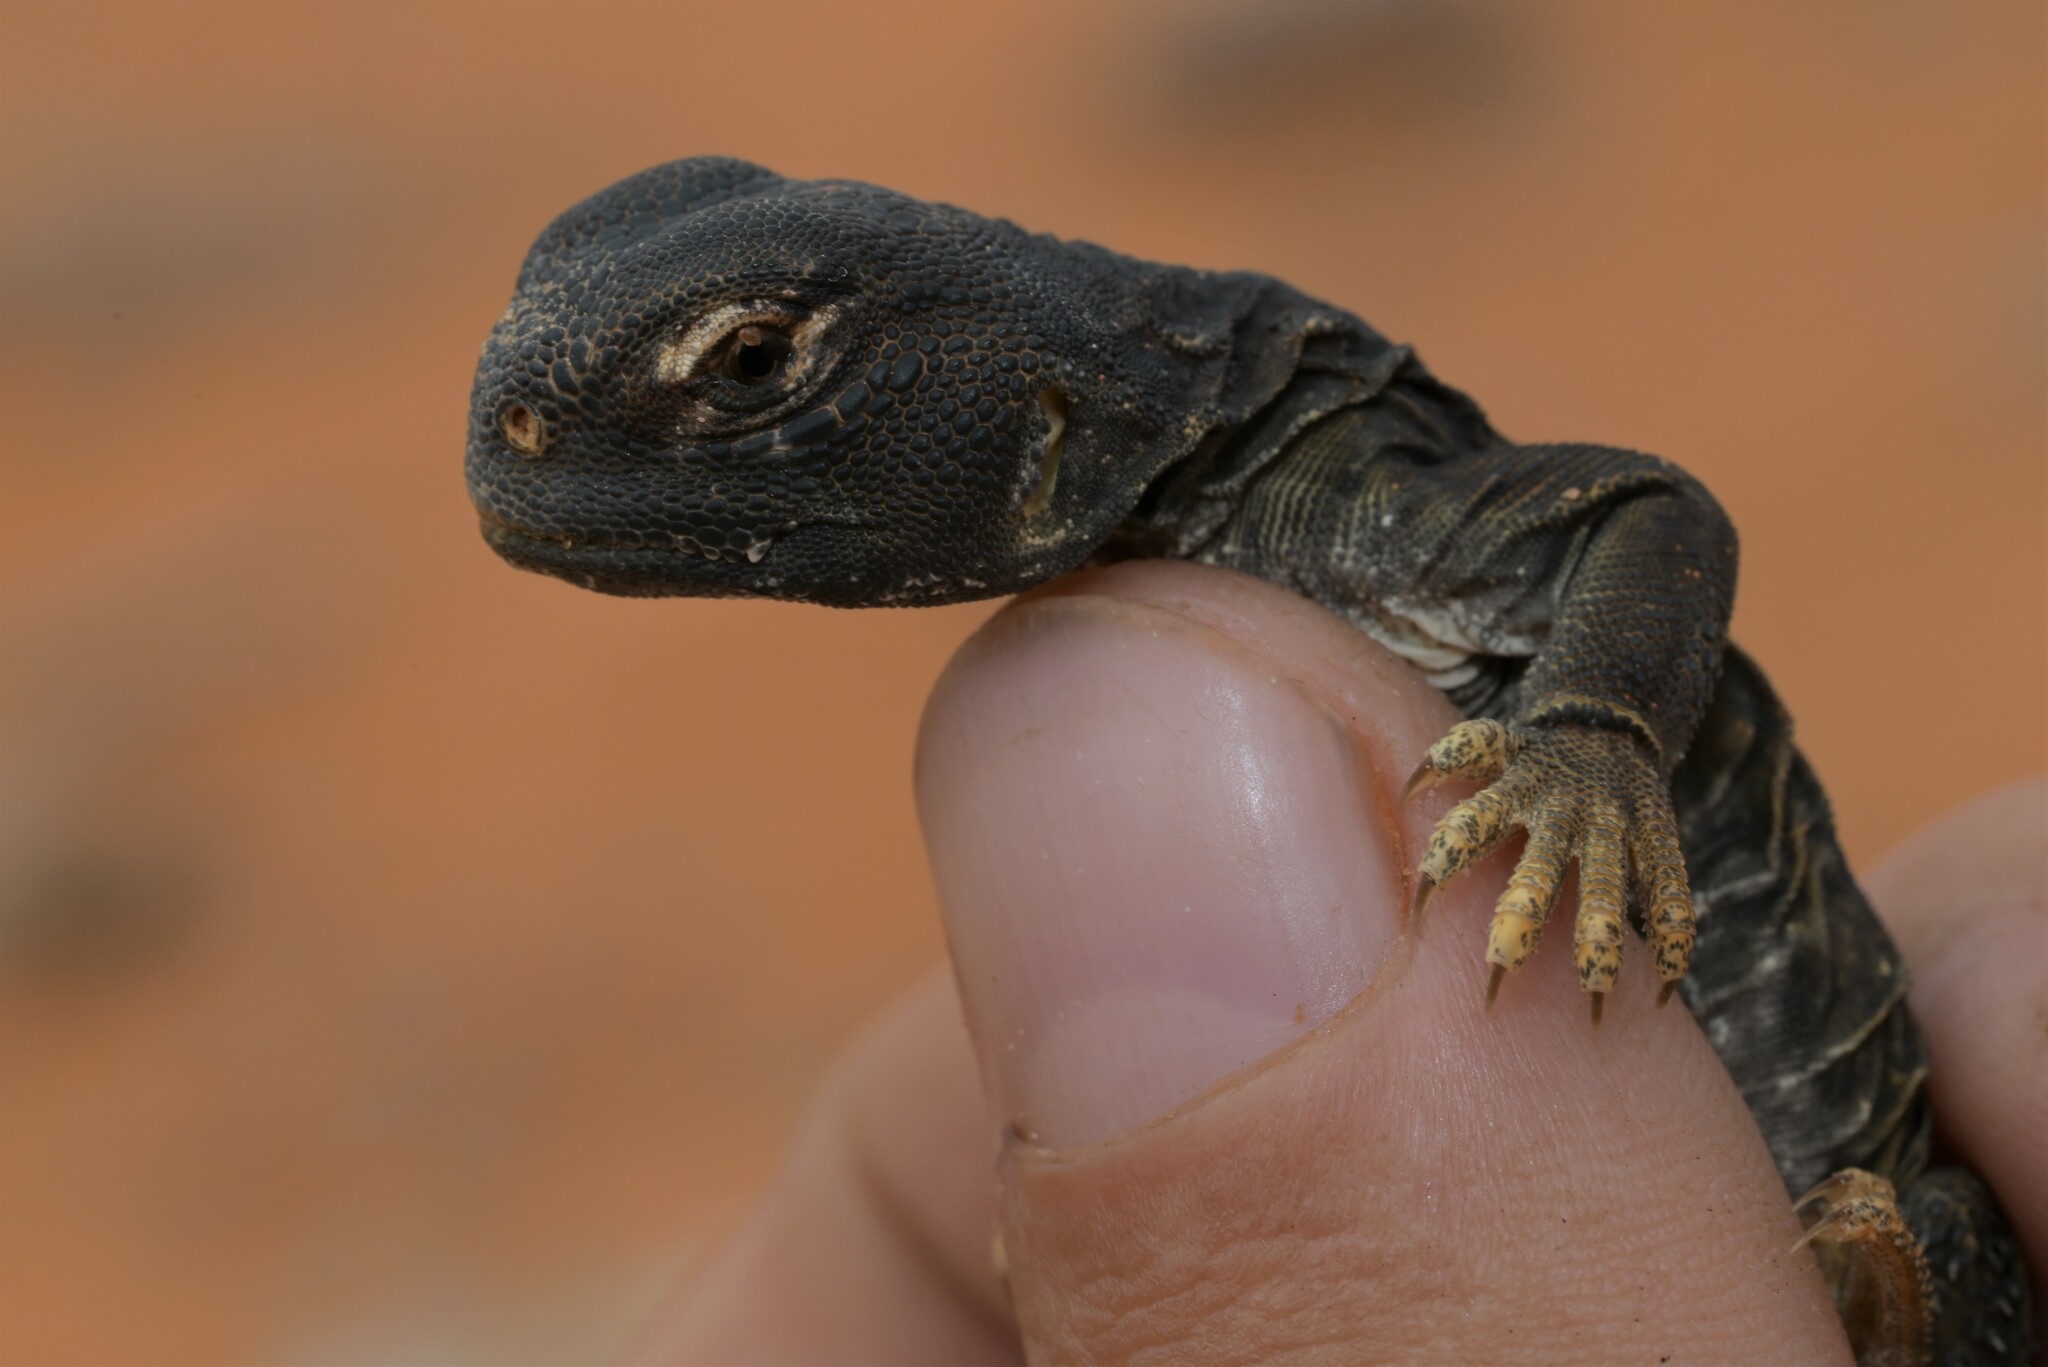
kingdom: Animalia
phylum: Chordata
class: Squamata
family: Agamidae
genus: Uromastyx
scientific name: Uromastyx aegyptia
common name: Egyptian mastigure
